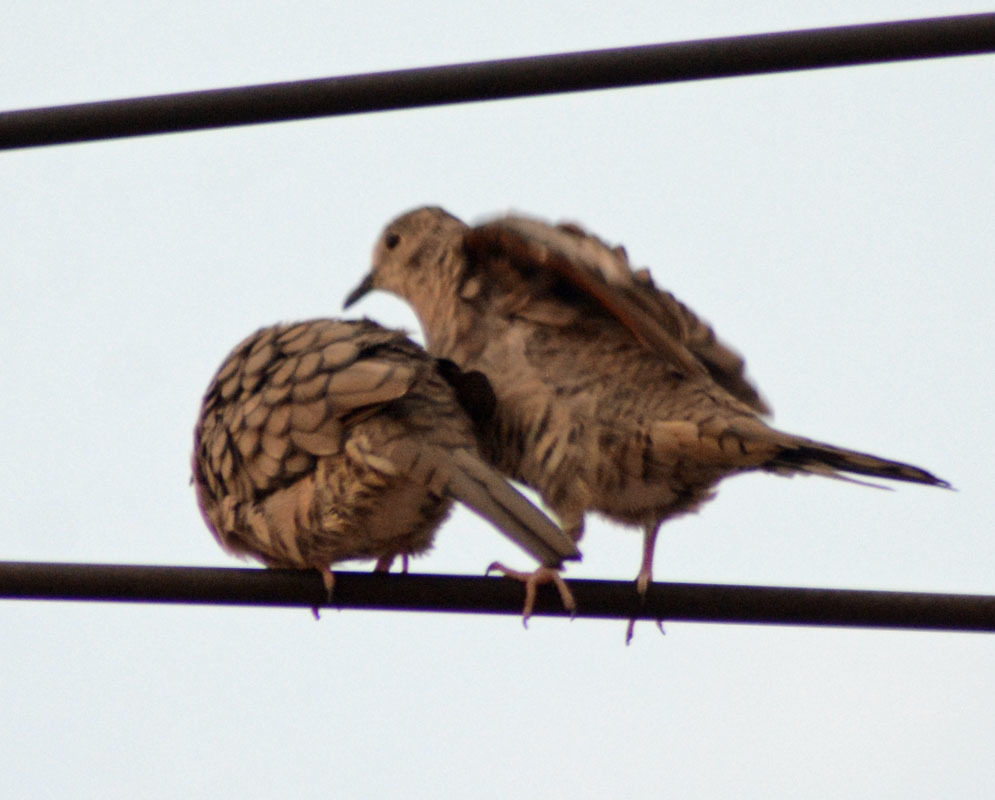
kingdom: Animalia
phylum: Chordata
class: Aves
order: Columbiformes
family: Columbidae
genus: Columbina
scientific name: Columbina inca
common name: Inca dove
